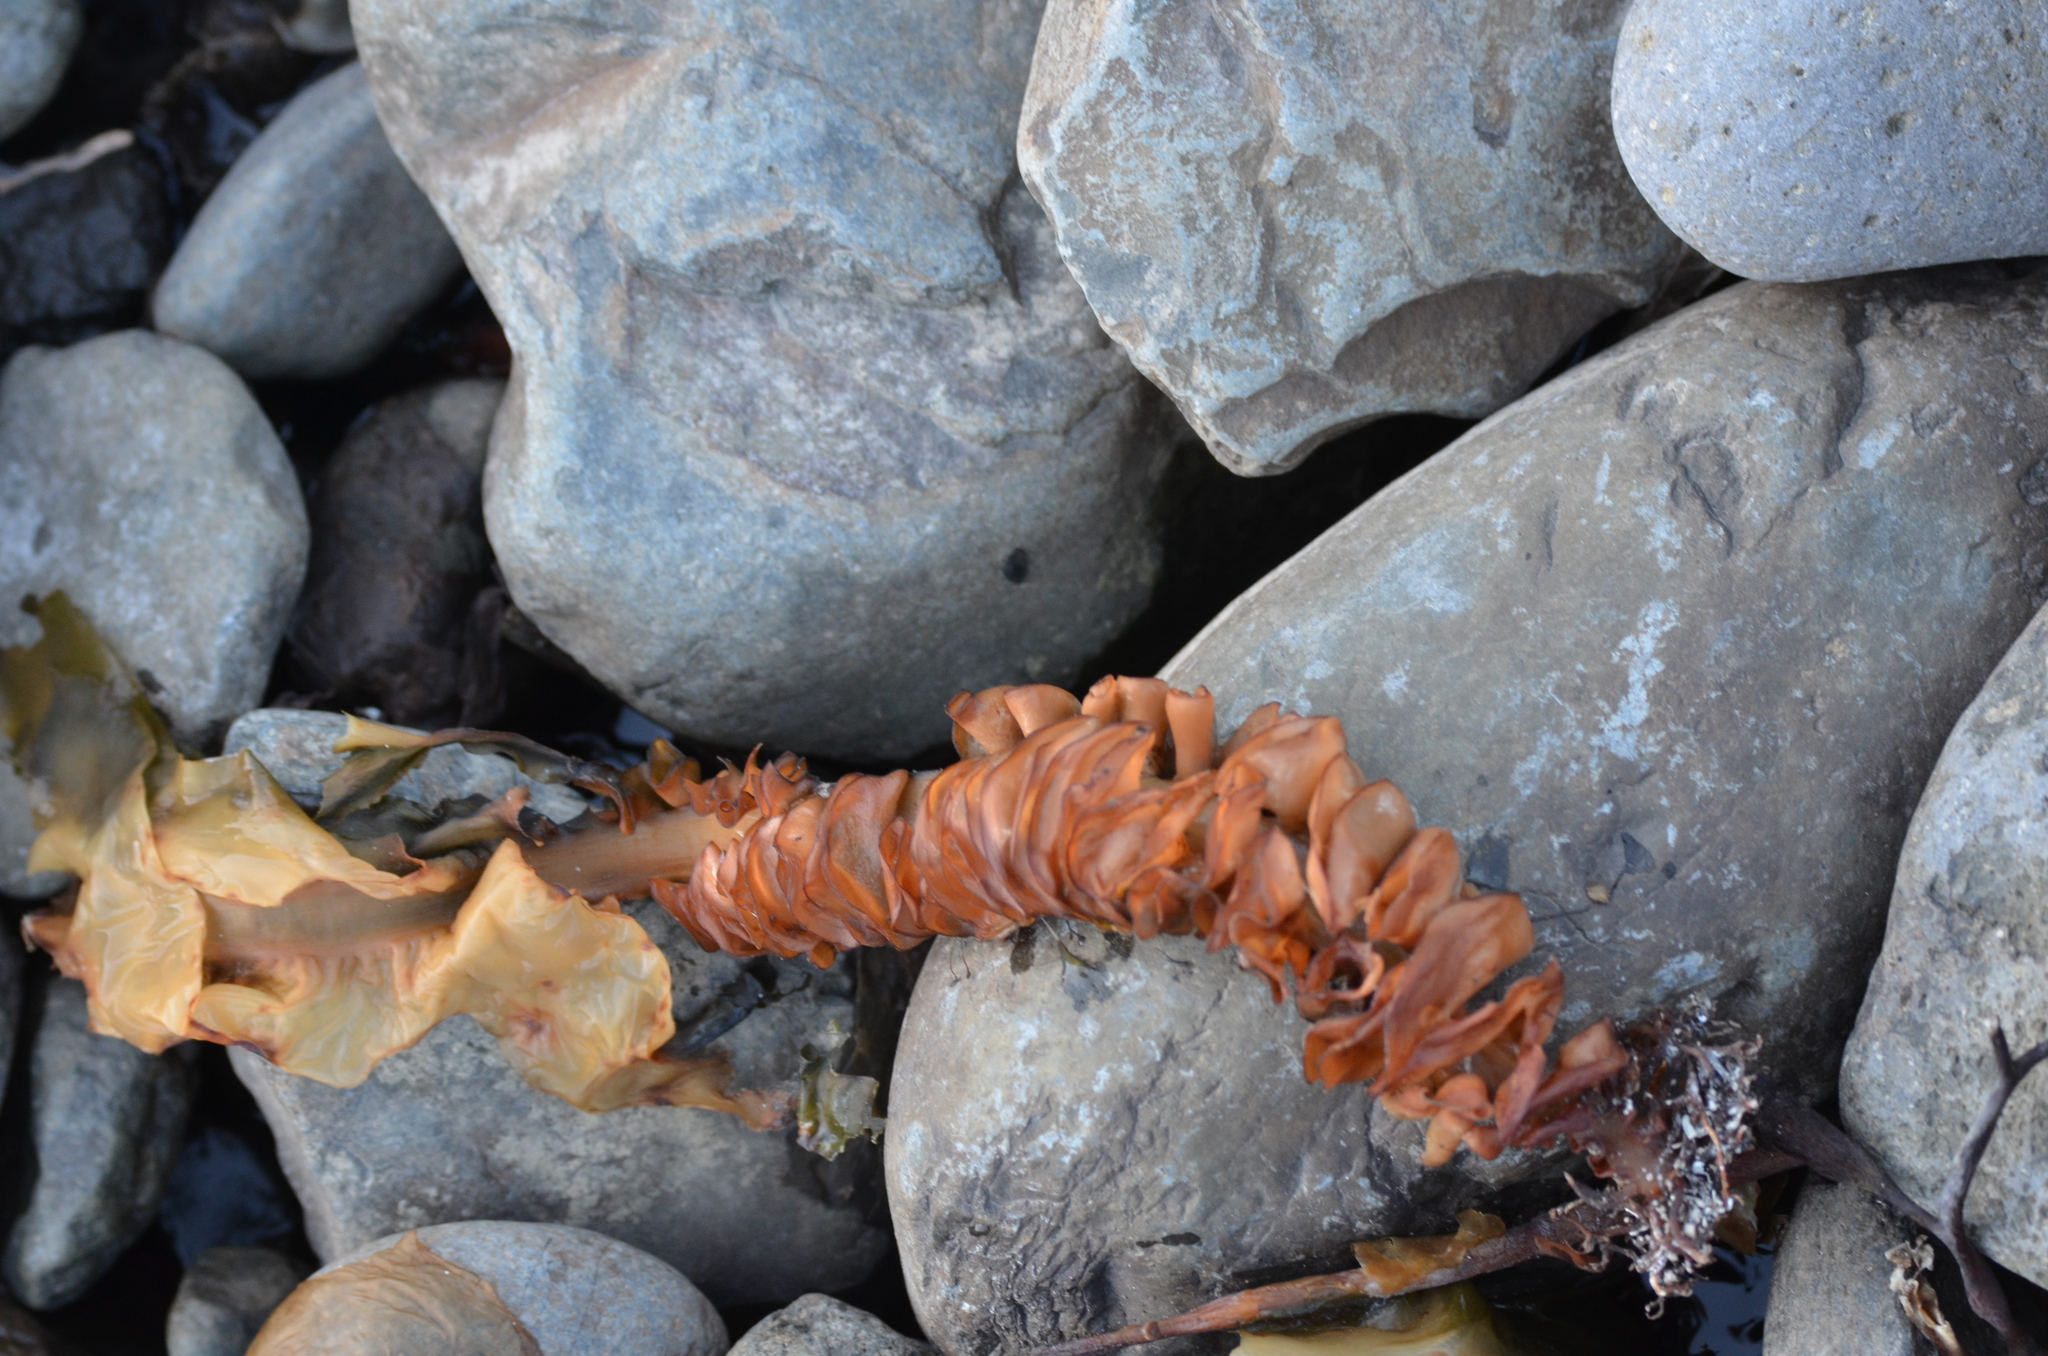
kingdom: Chromista
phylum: Ochrophyta
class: Phaeophyceae
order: Laminariales
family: Alariaceae
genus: Undaria
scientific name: Undaria pinnatifida
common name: Asian kelp
